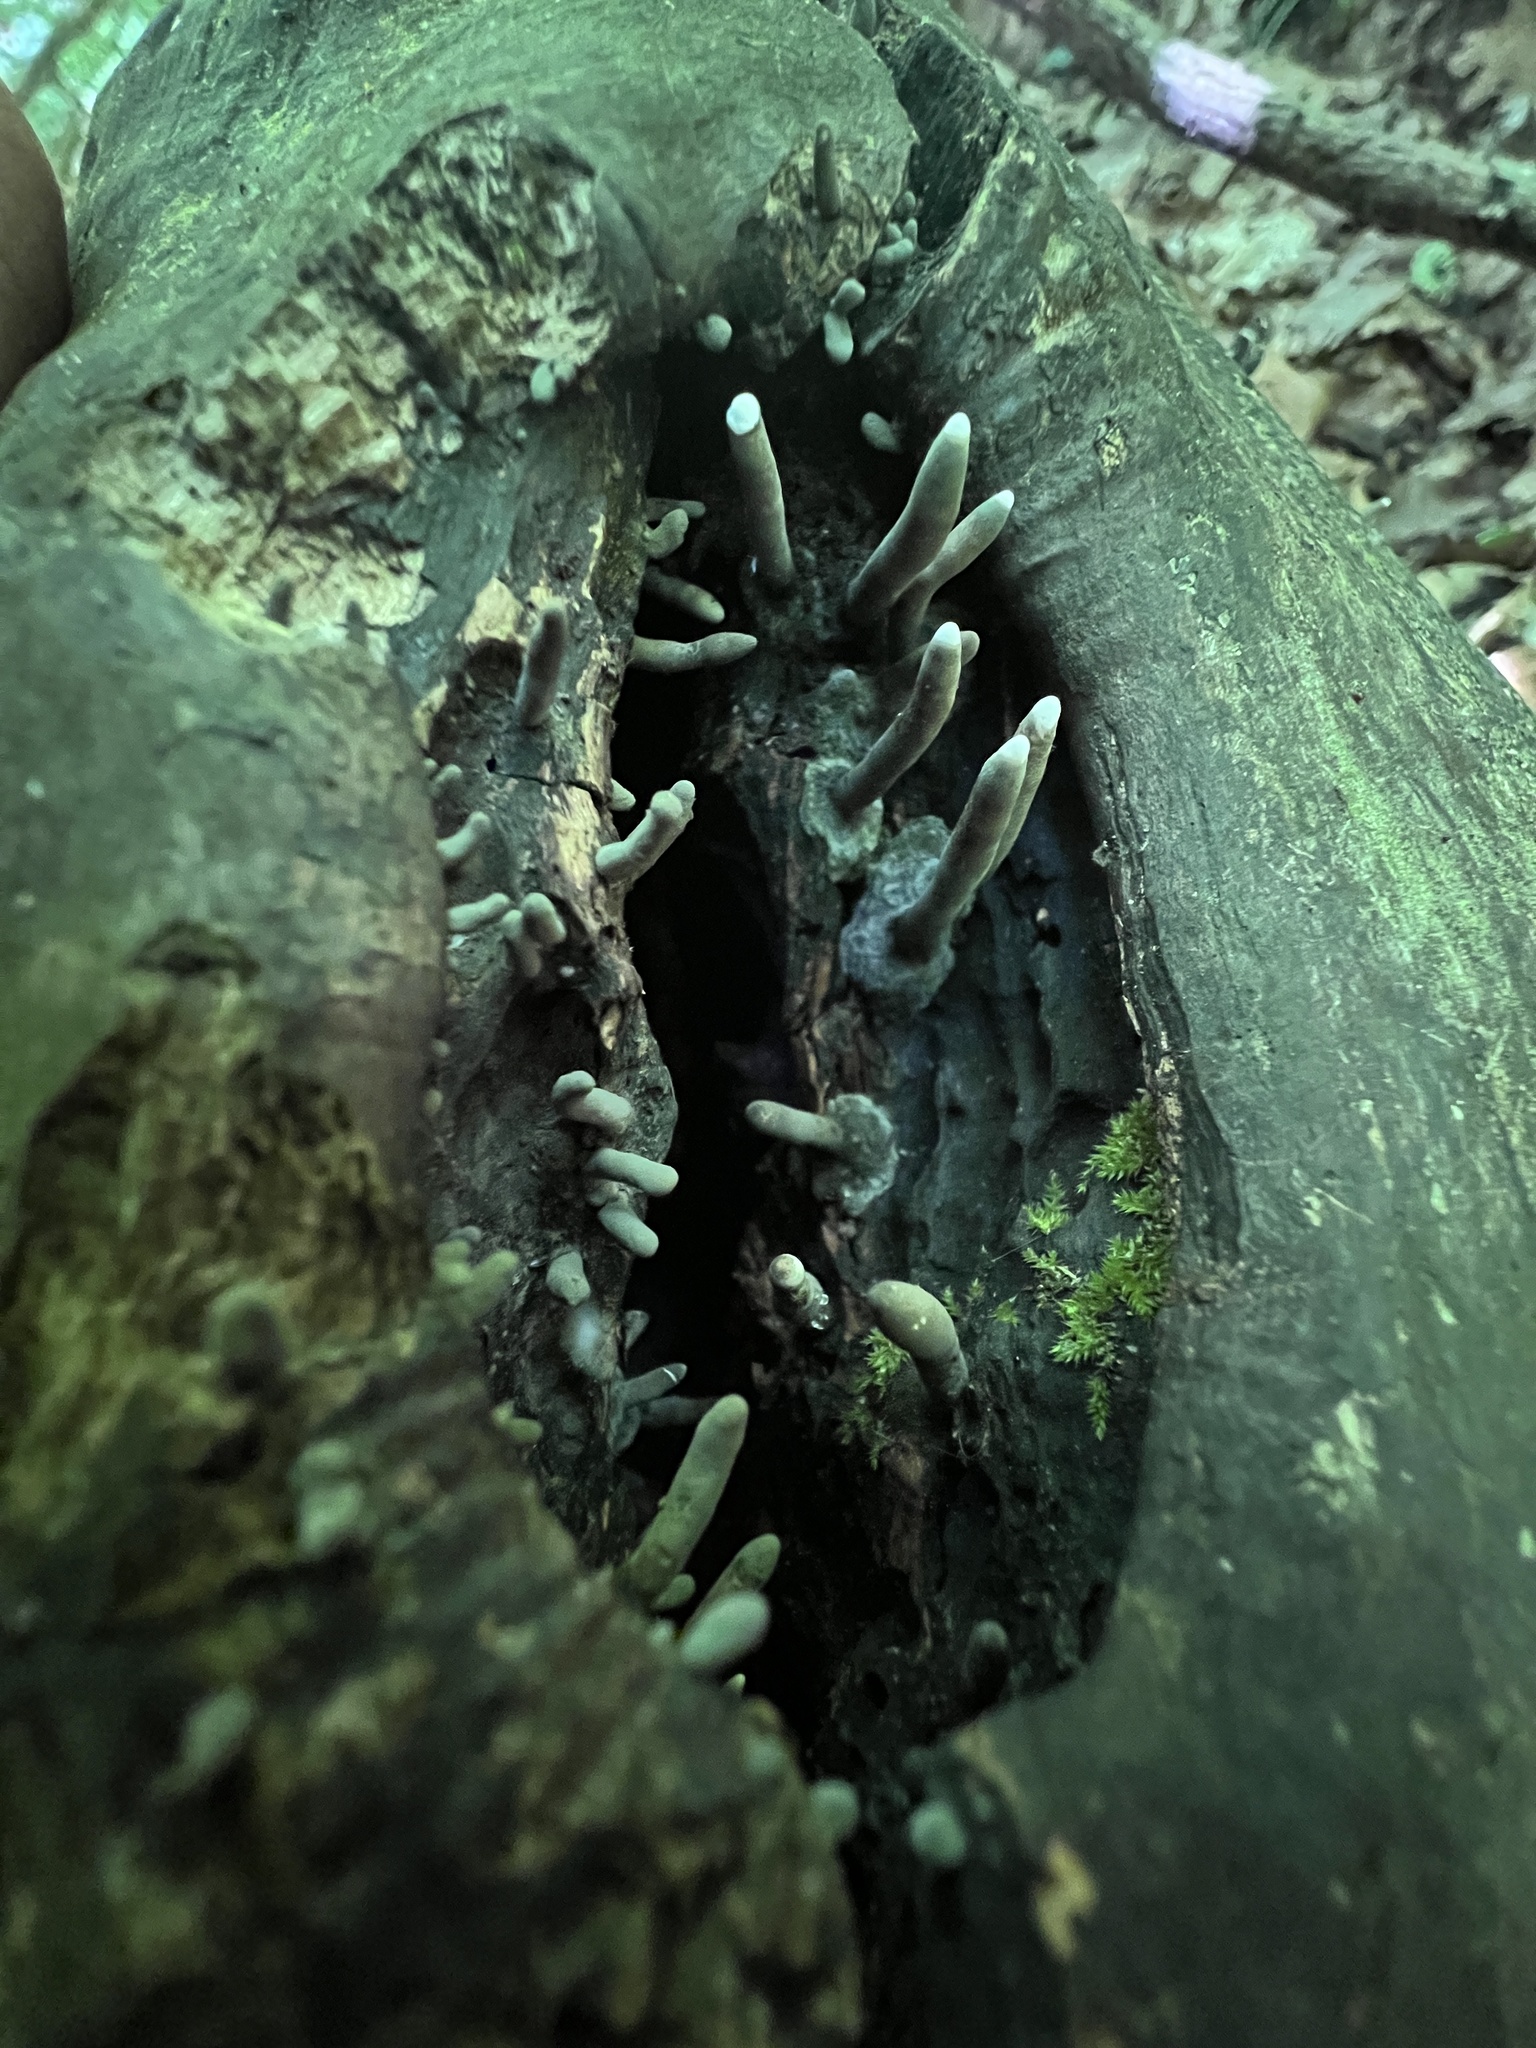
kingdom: Fungi
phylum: Ascomycota
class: Sordariomycetes
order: Xylariales
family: Xylariaceae
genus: Xylaria
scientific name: Xylaria corniformis
